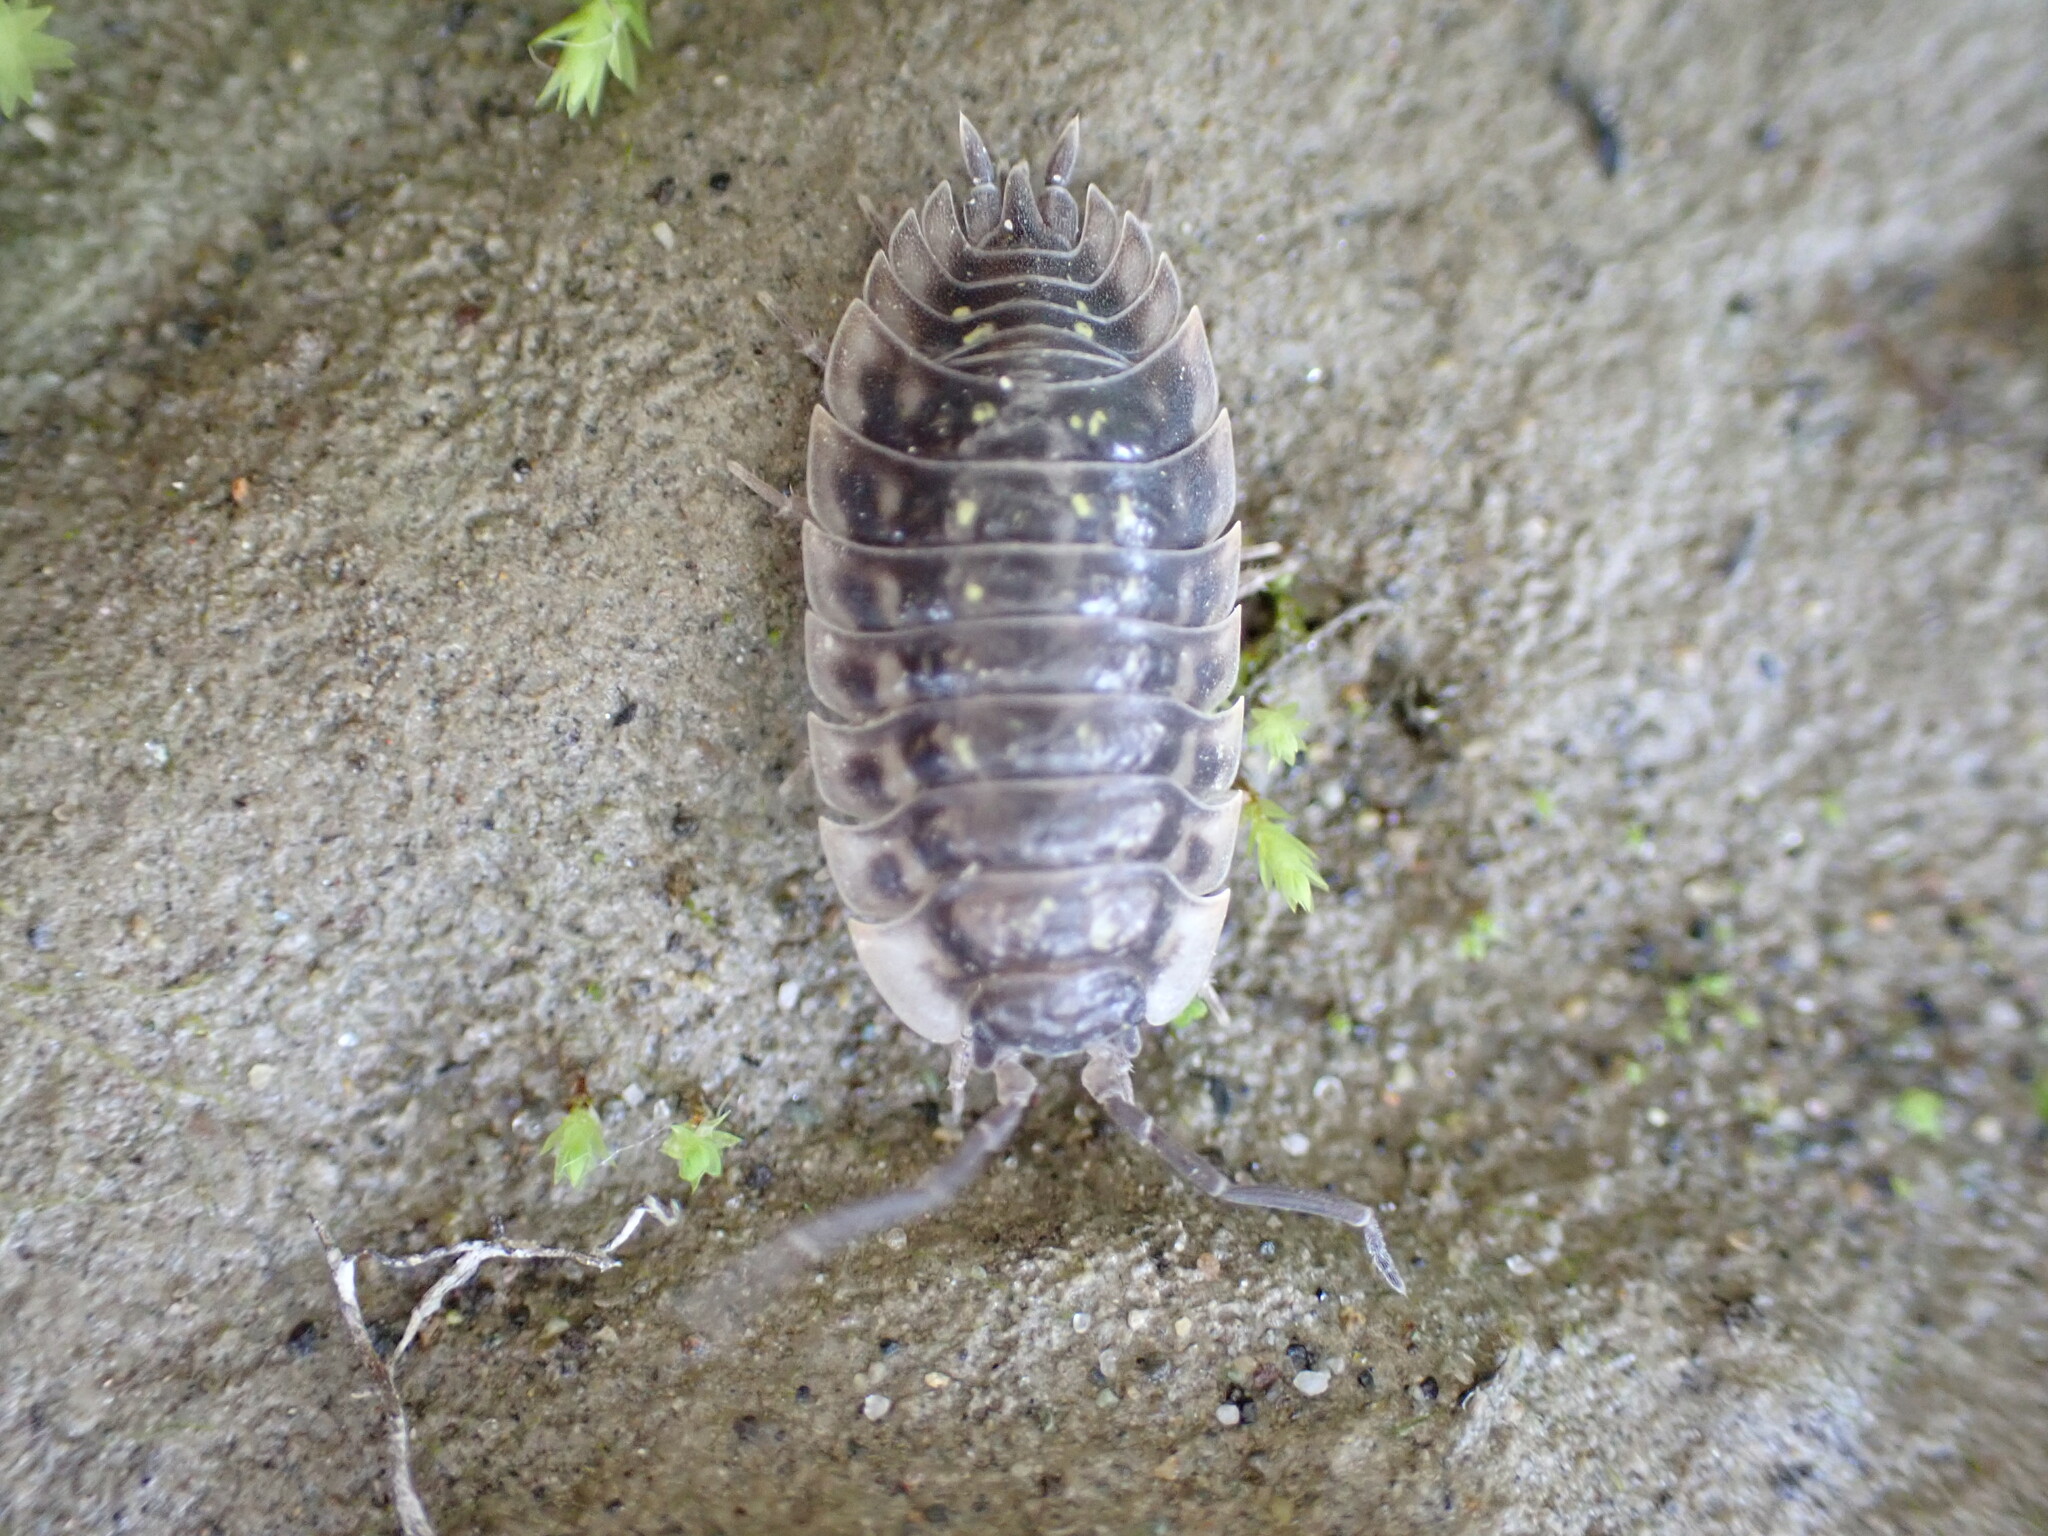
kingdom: Animalia
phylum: Arthropoda
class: Malacostraca
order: Isopoda
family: Oniscidae
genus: Oniscus
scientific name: Oniscus asellus
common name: Common shiny woodlouse
